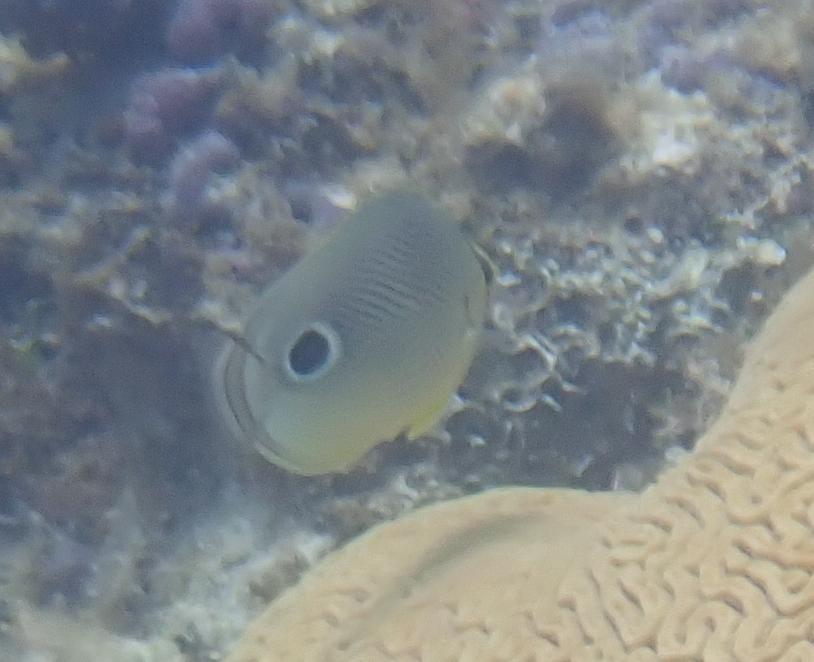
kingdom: Animalia
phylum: Chordata
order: Perciformes
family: Chaetodontidae
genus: Chaetodon
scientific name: Chaetodon capistratus
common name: Kete
